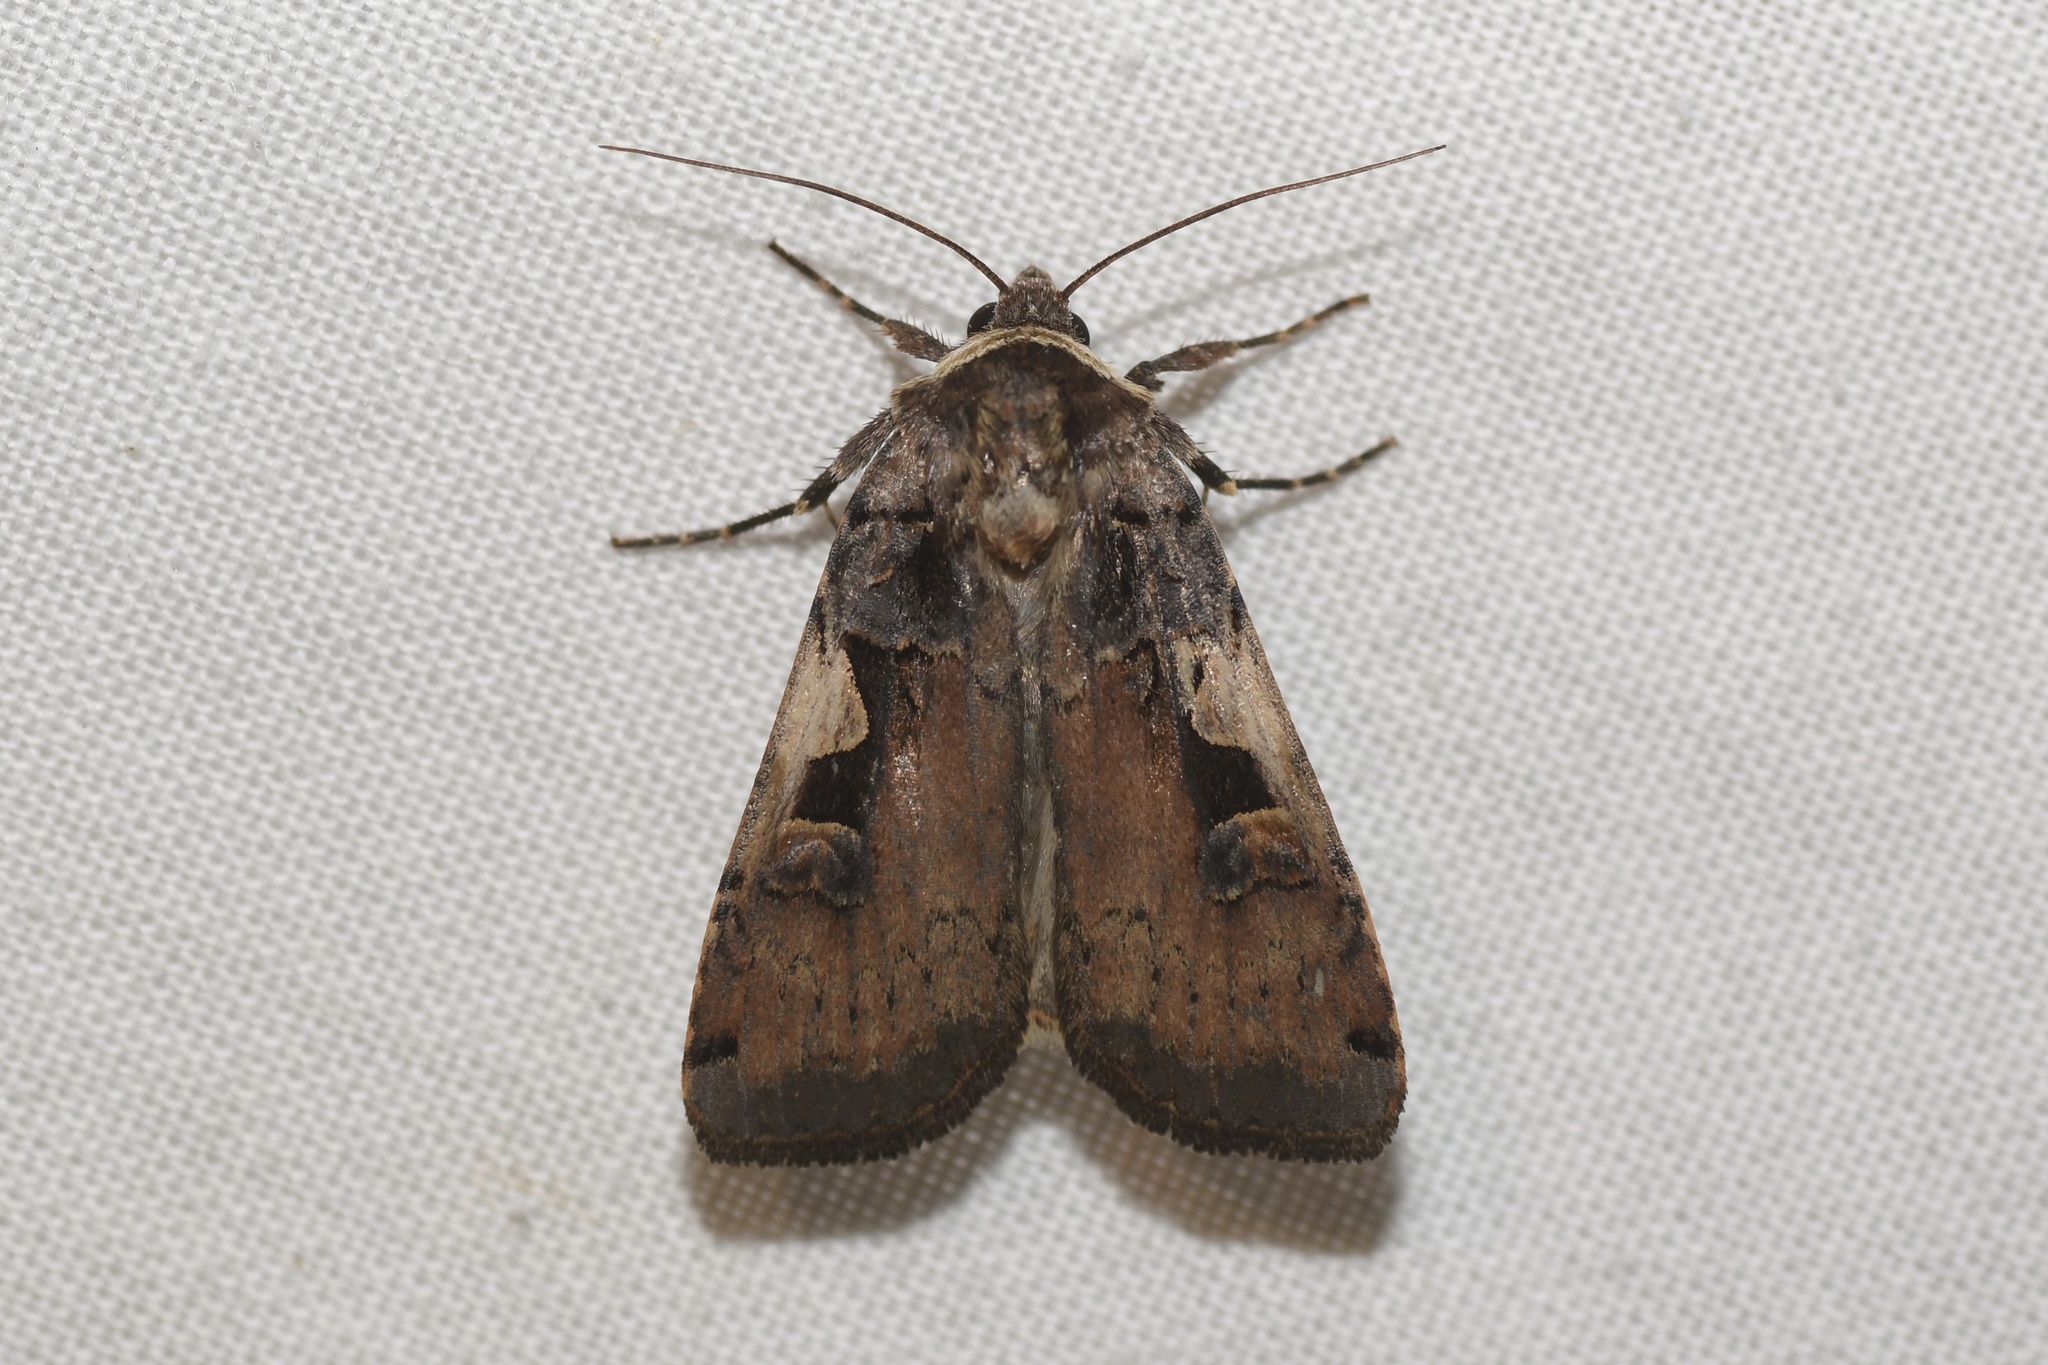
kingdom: Animalia
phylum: Arthropoda
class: Insecta
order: Lepidoptera
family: Noctuidae
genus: Xestia
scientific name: Xestia
